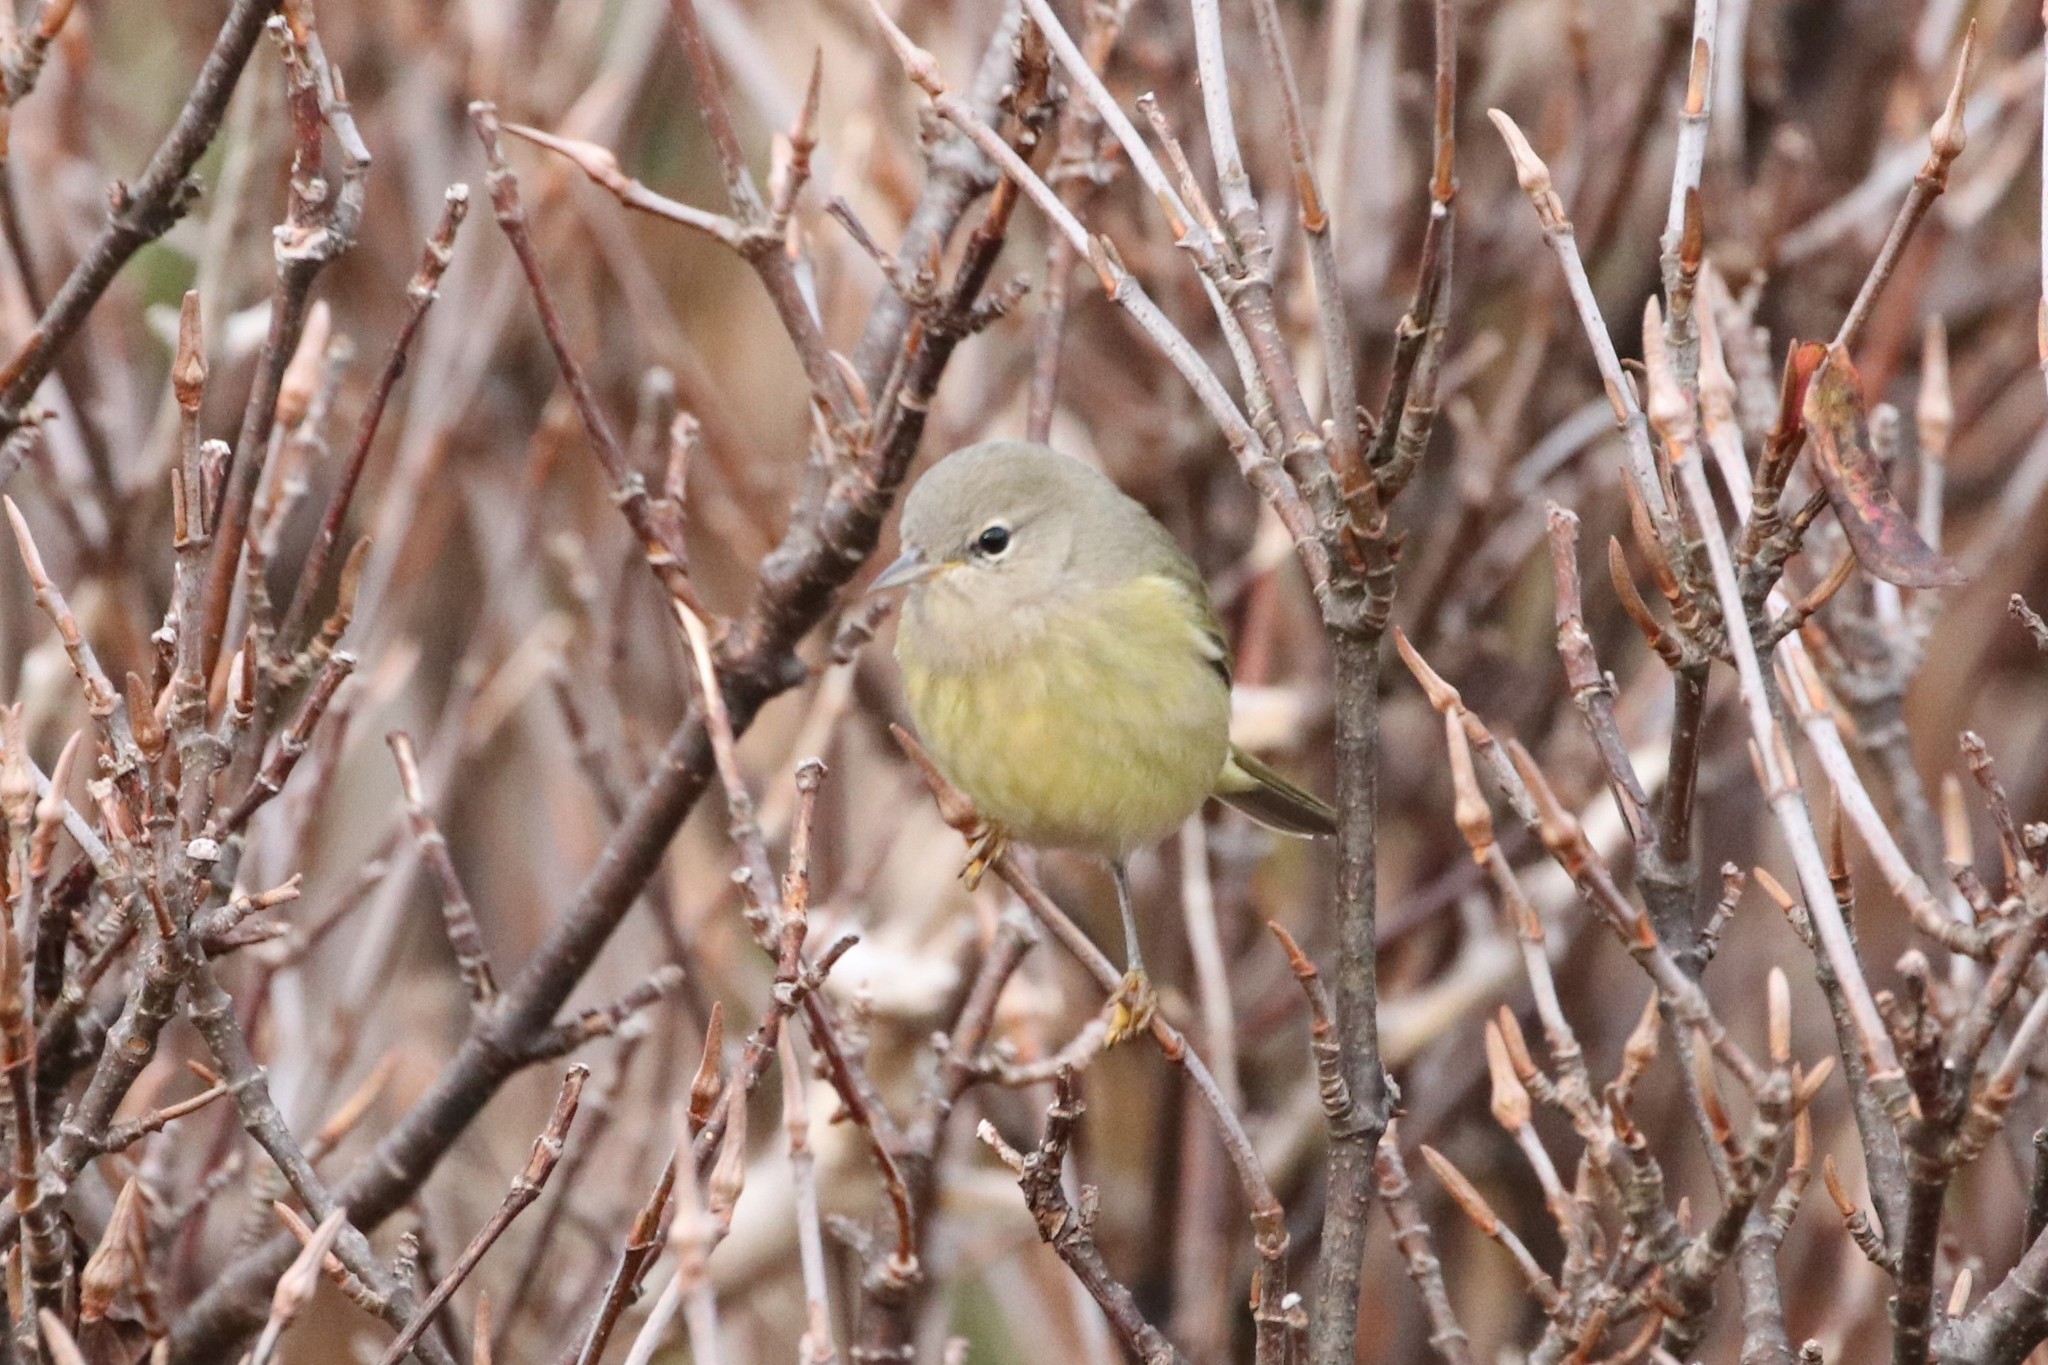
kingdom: Animalia
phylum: Chordata
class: Aves
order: Passeriformes
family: Parulidae
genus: Leiothlypis
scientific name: Leiothlypis celata
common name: Orange-crowned warbler
